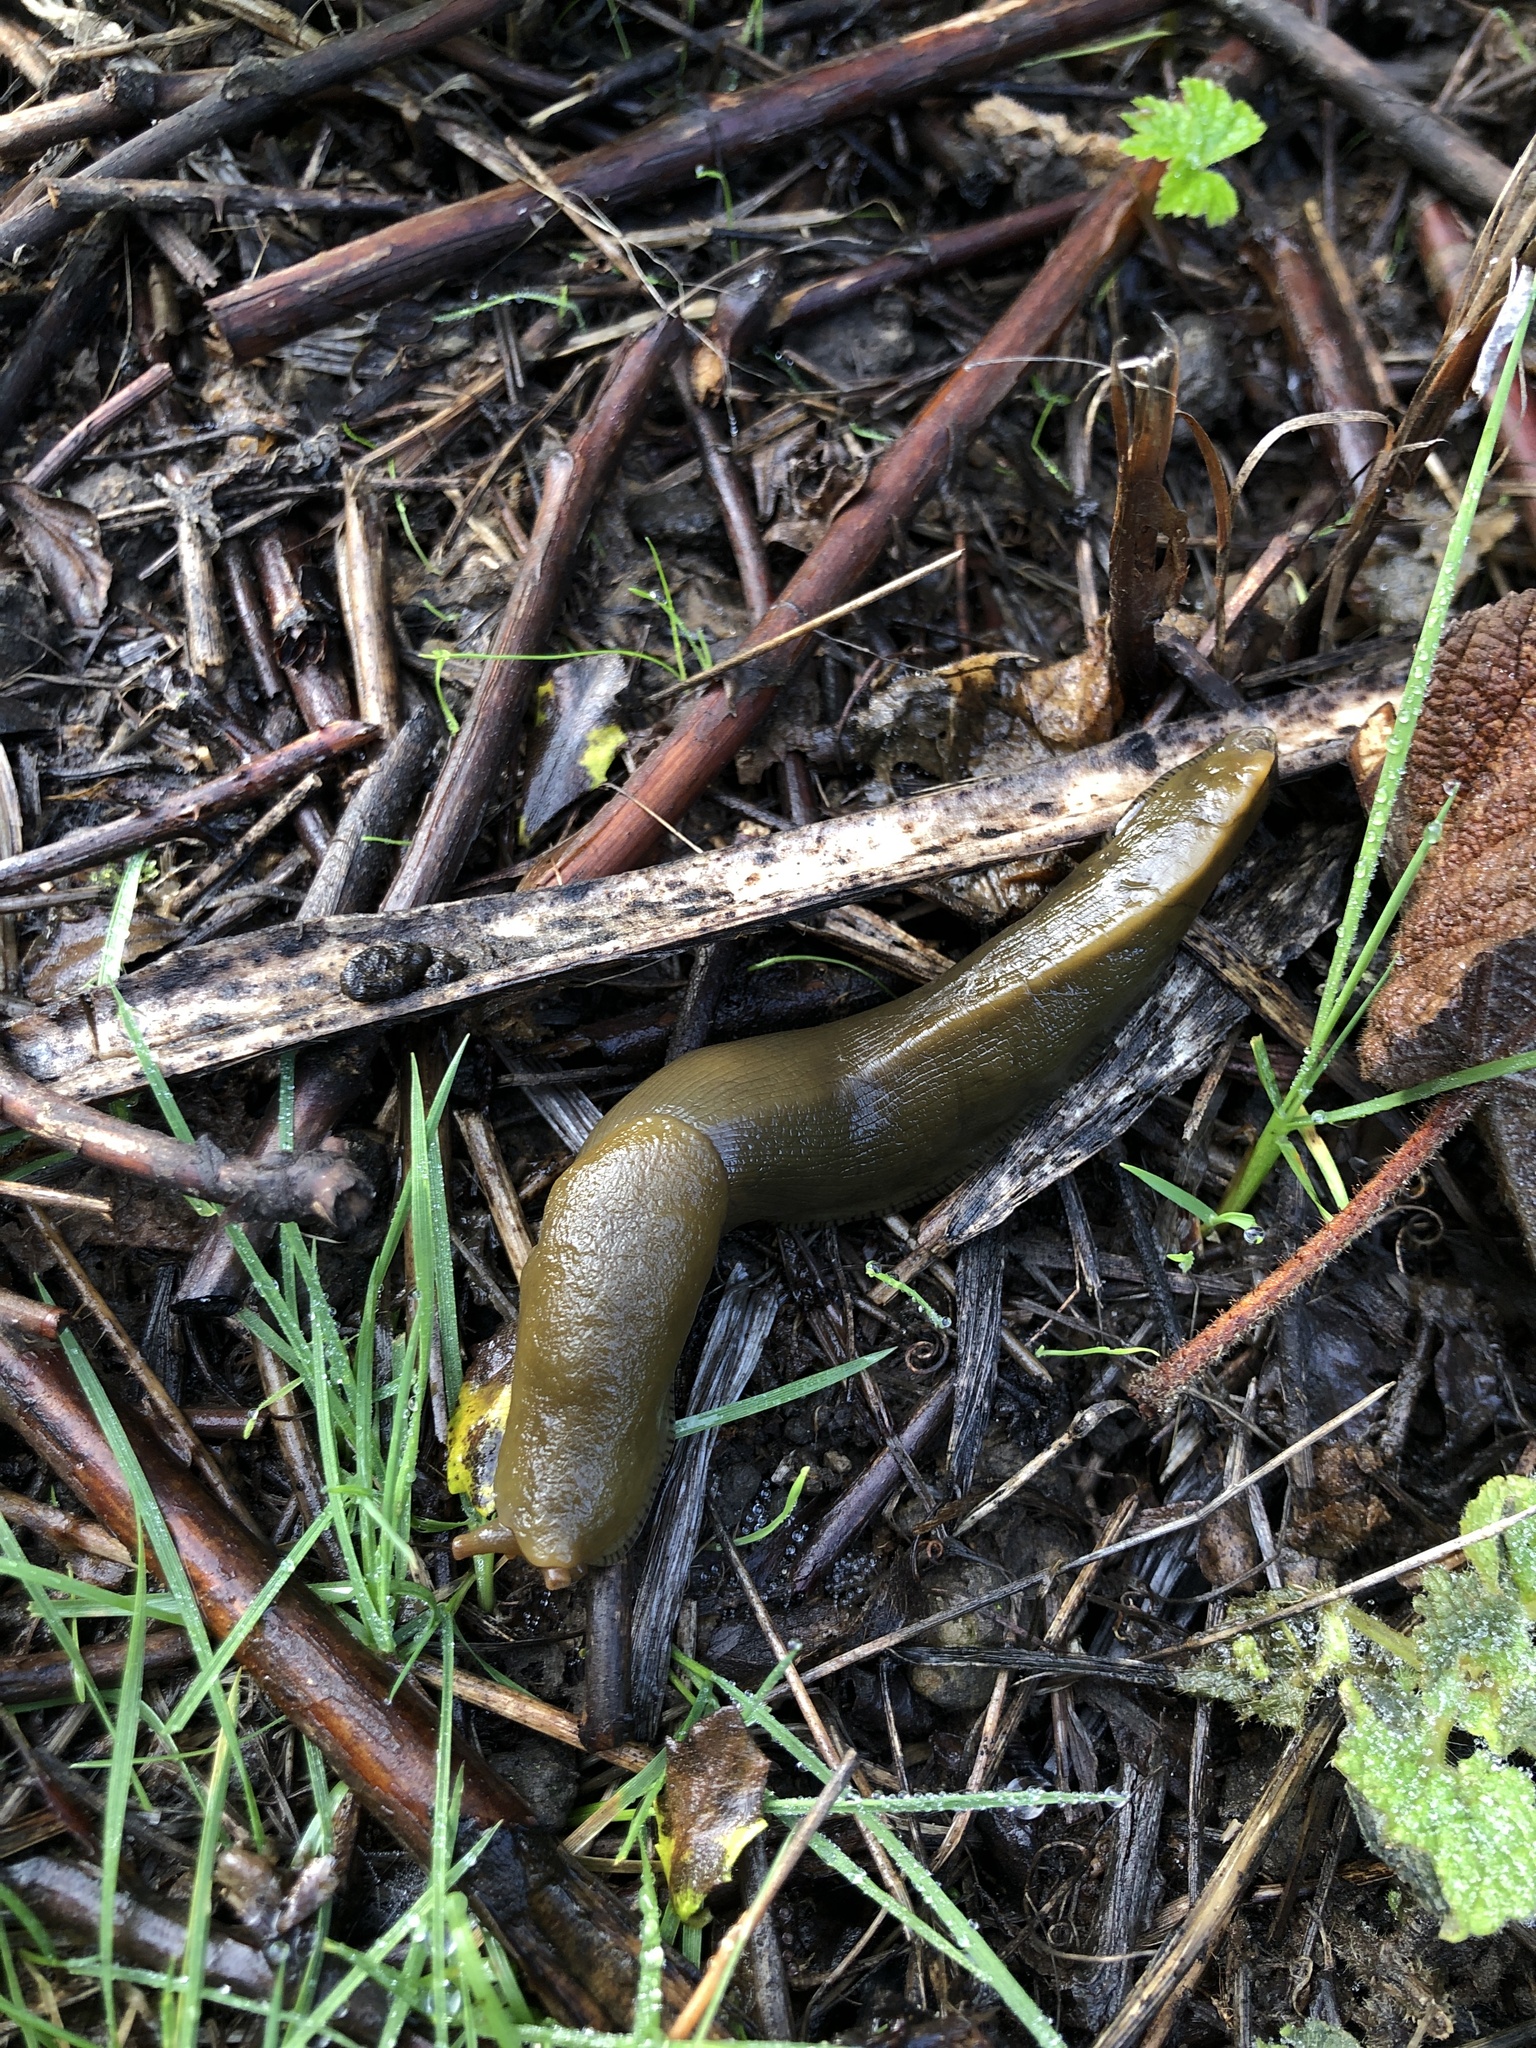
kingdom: Animalia
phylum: Mollusca
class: Gastropoda
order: Stylommatophora
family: Ariolimacidae
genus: Ariolimax
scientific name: Ariolimax buttoni
